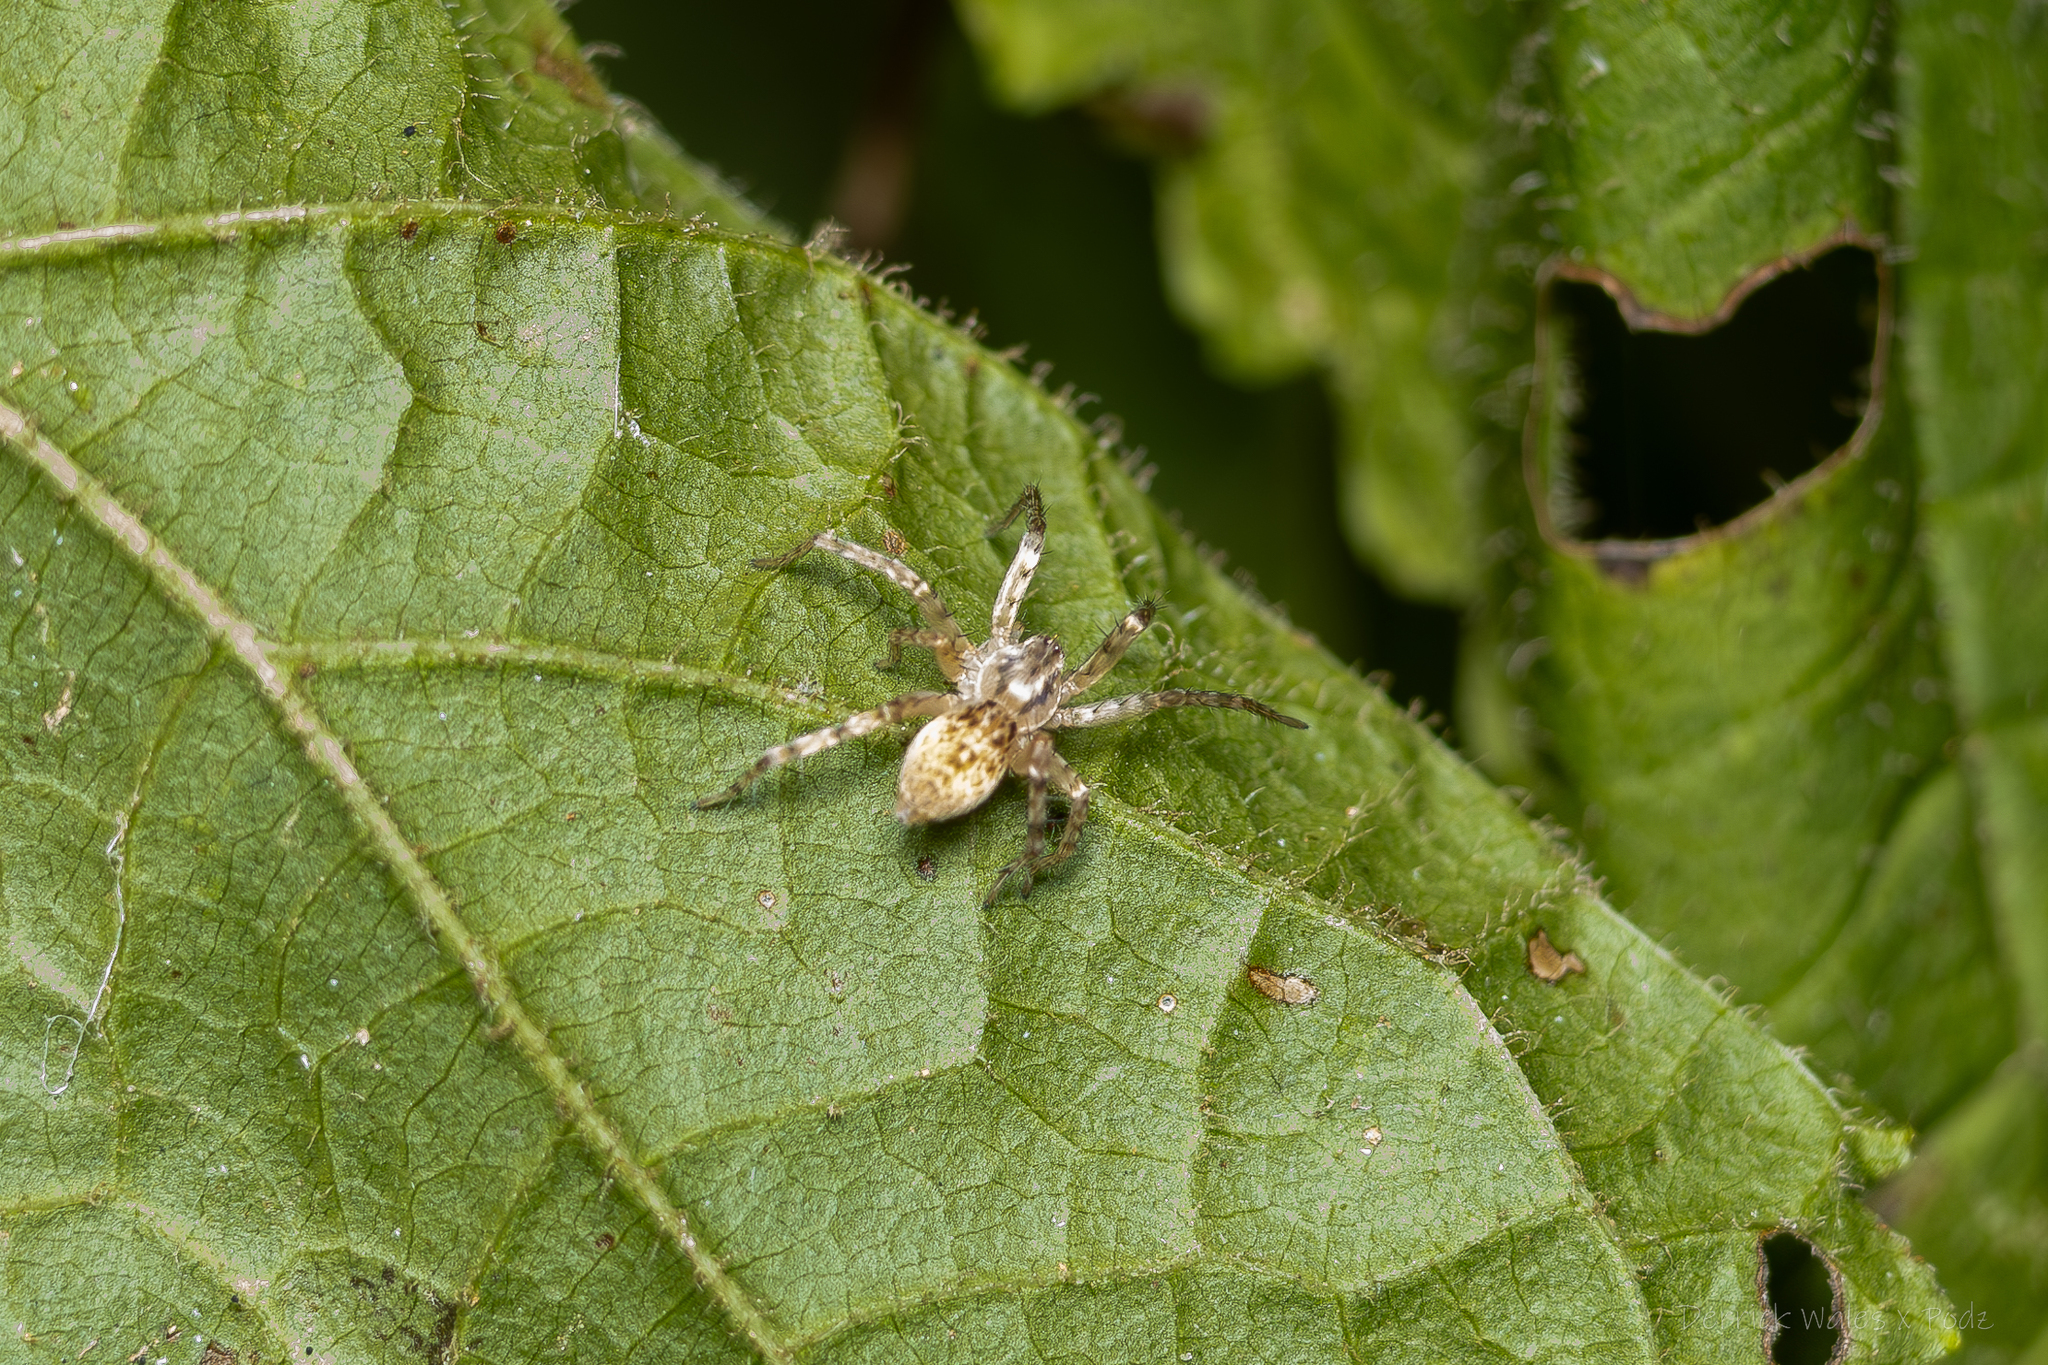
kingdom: Animalia
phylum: Arthropoda
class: Arachnida
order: Araneae
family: Anyphaenidae
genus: Anyphaena
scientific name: Anyphaena
